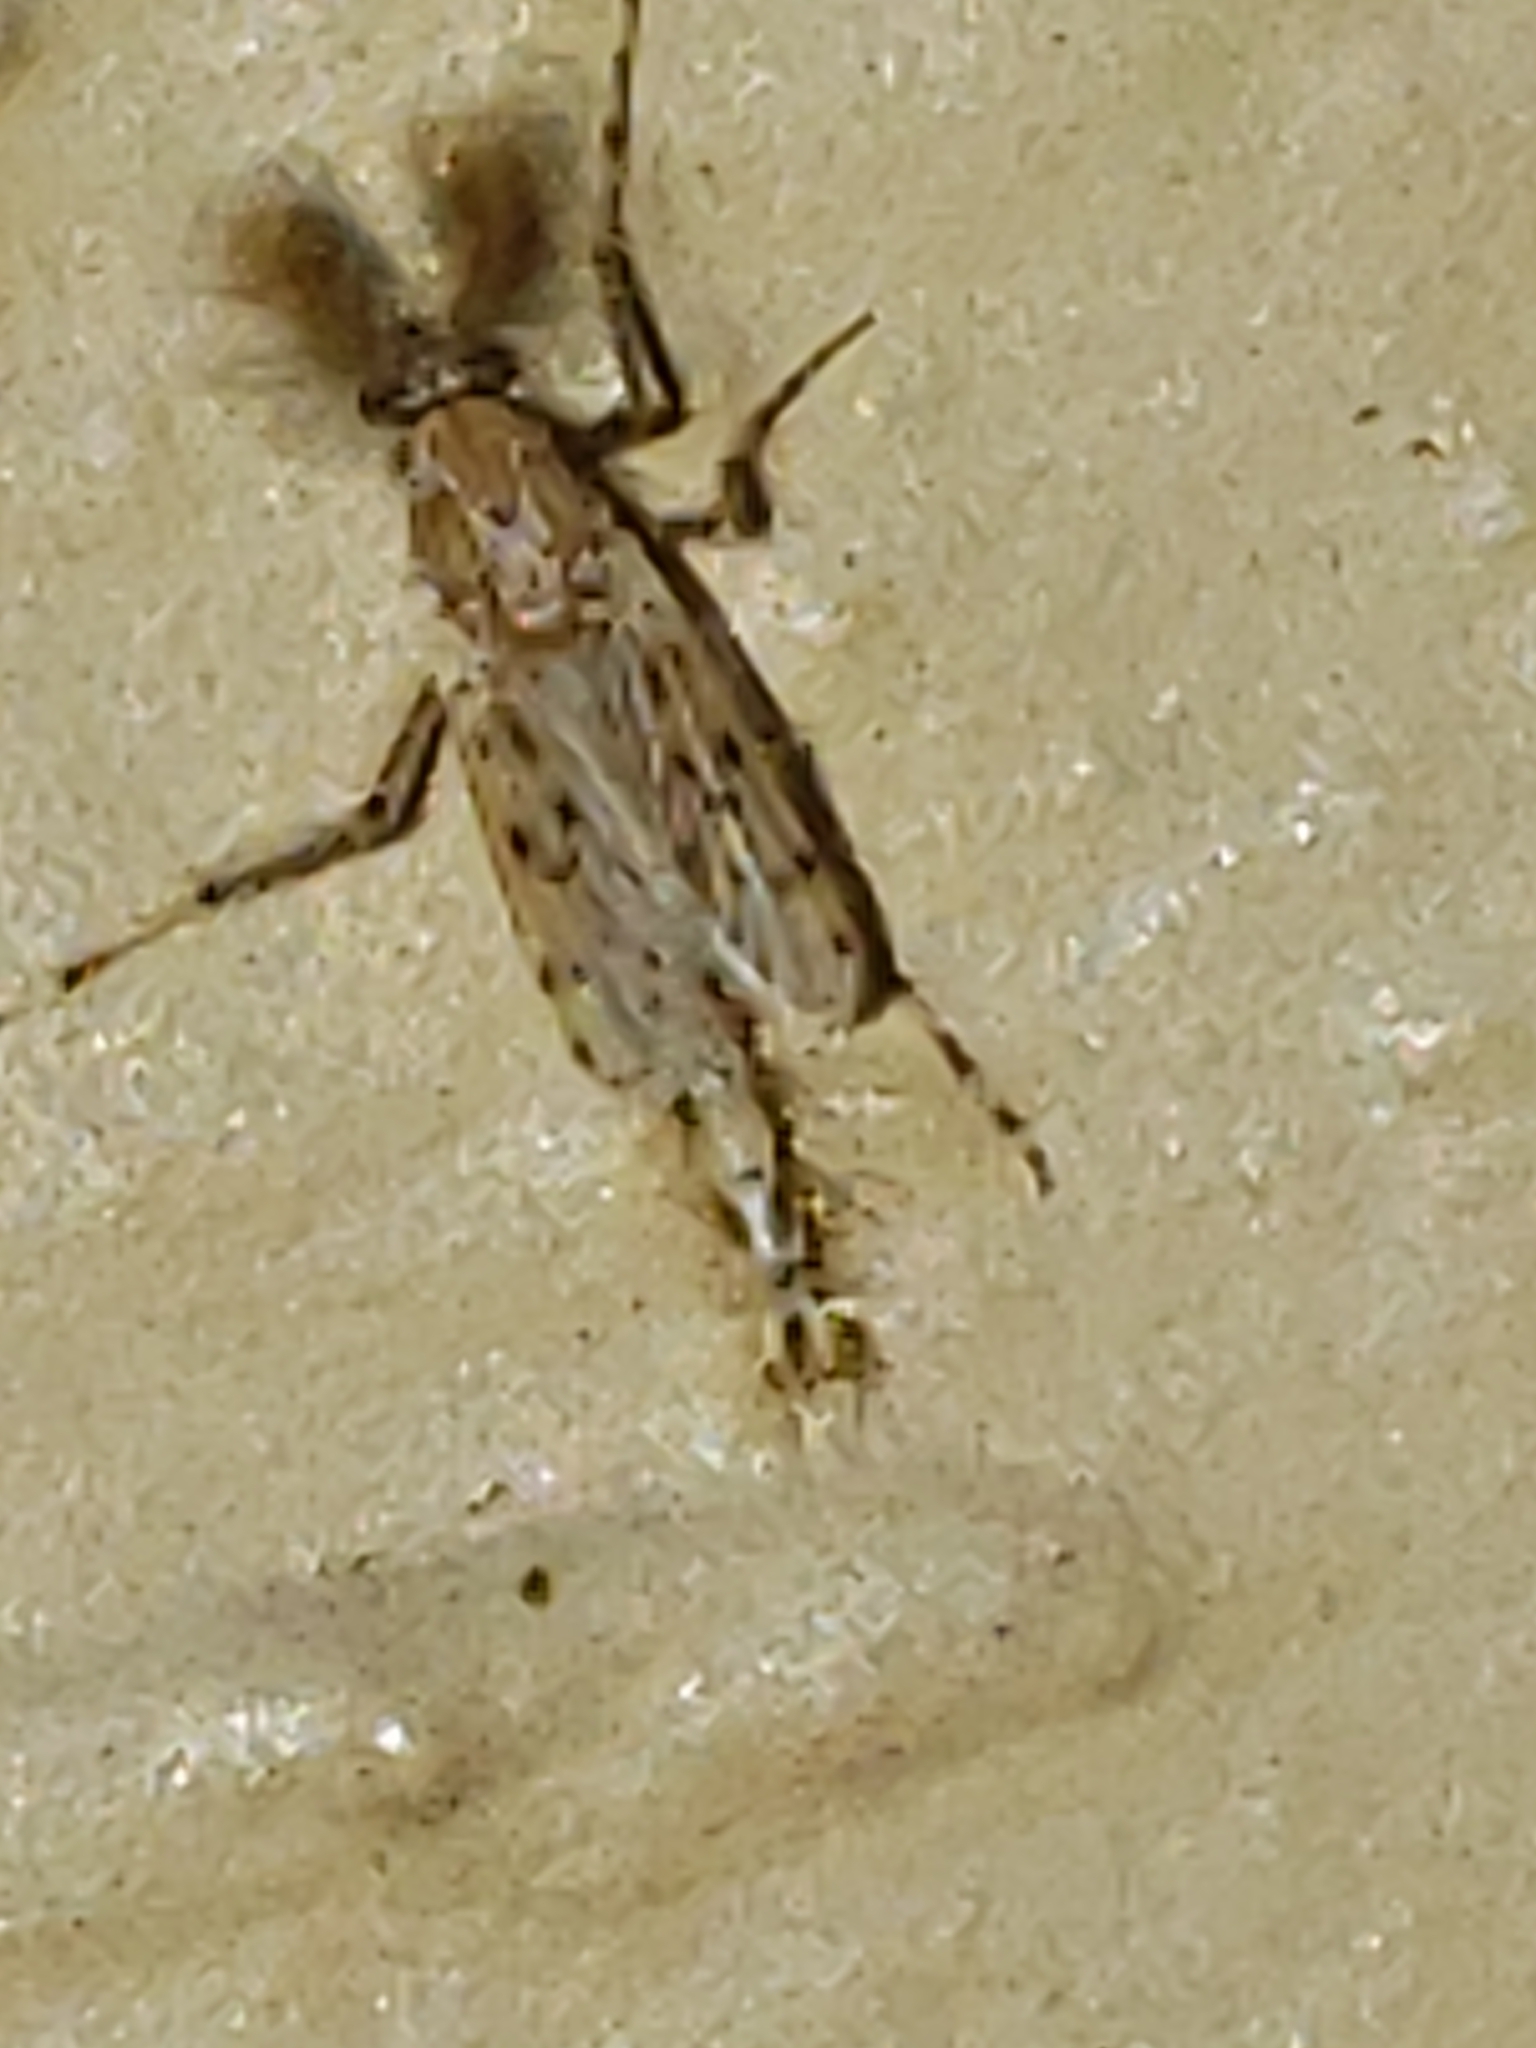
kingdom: Animalia
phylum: Arthropoda
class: Insecta
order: Diptera
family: Chaoboridae
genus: Chaoborus
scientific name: Chaoborus punctipennis
